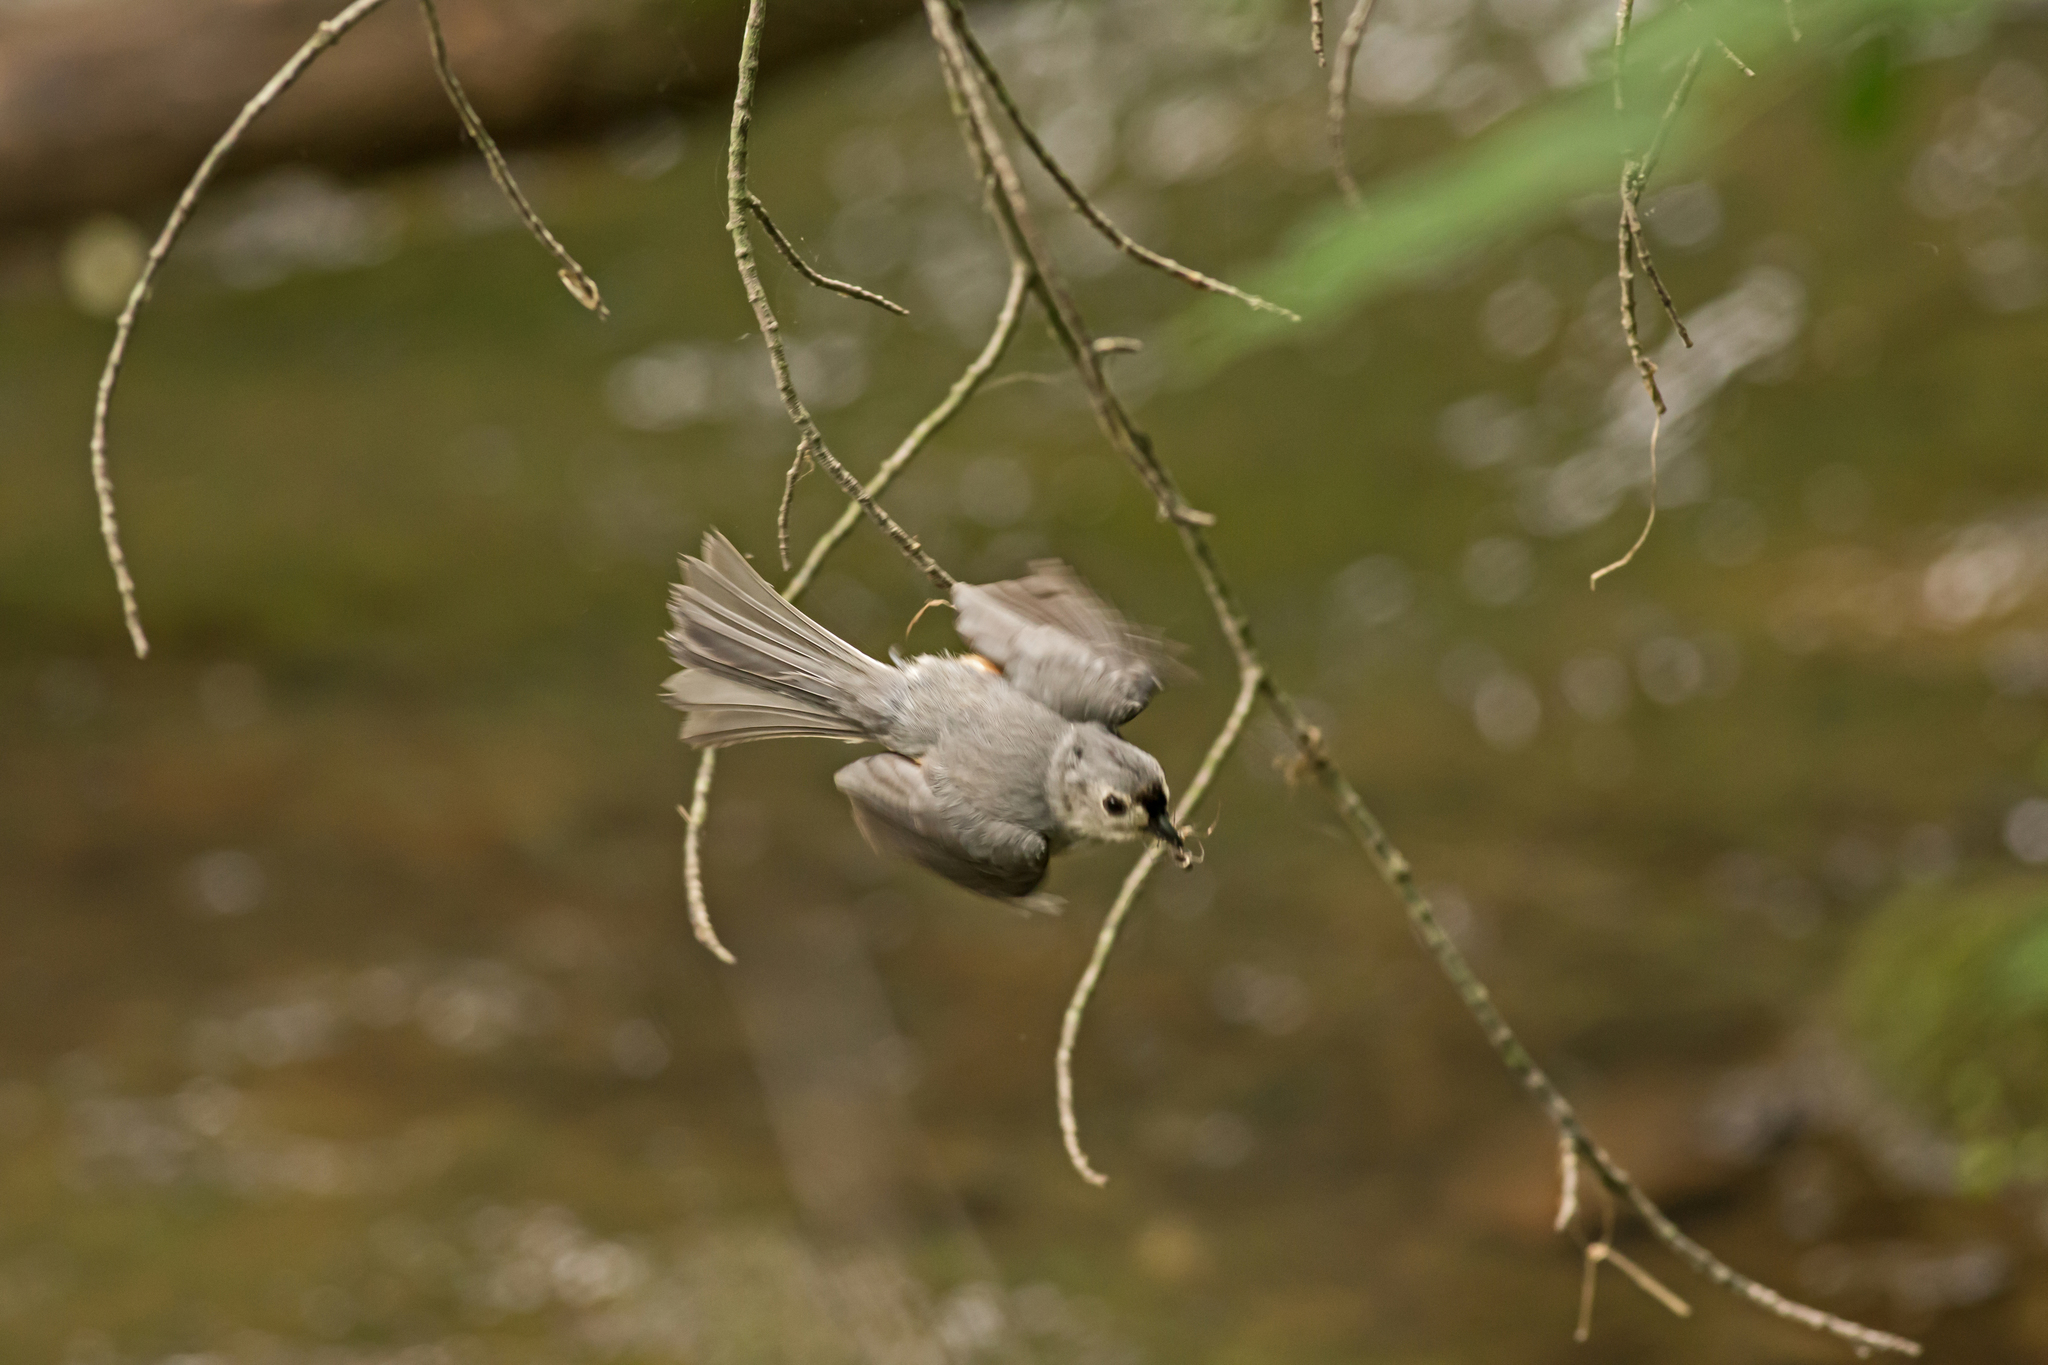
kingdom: Animalia
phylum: Chordata
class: Aves
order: Passeriformes
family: Paridae
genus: Baeolophus
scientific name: Baeolophus bicolor
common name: Tufted titmouse
